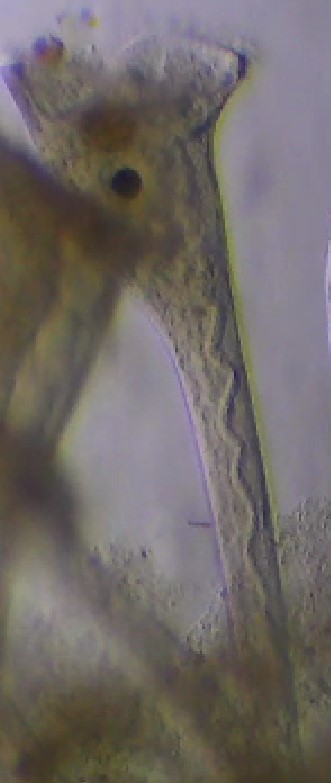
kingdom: Chromista
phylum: Ciliophora
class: Heterotrichea
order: Heterotrichida
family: Stentoridae
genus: Stentor
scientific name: Stentor roeselii
